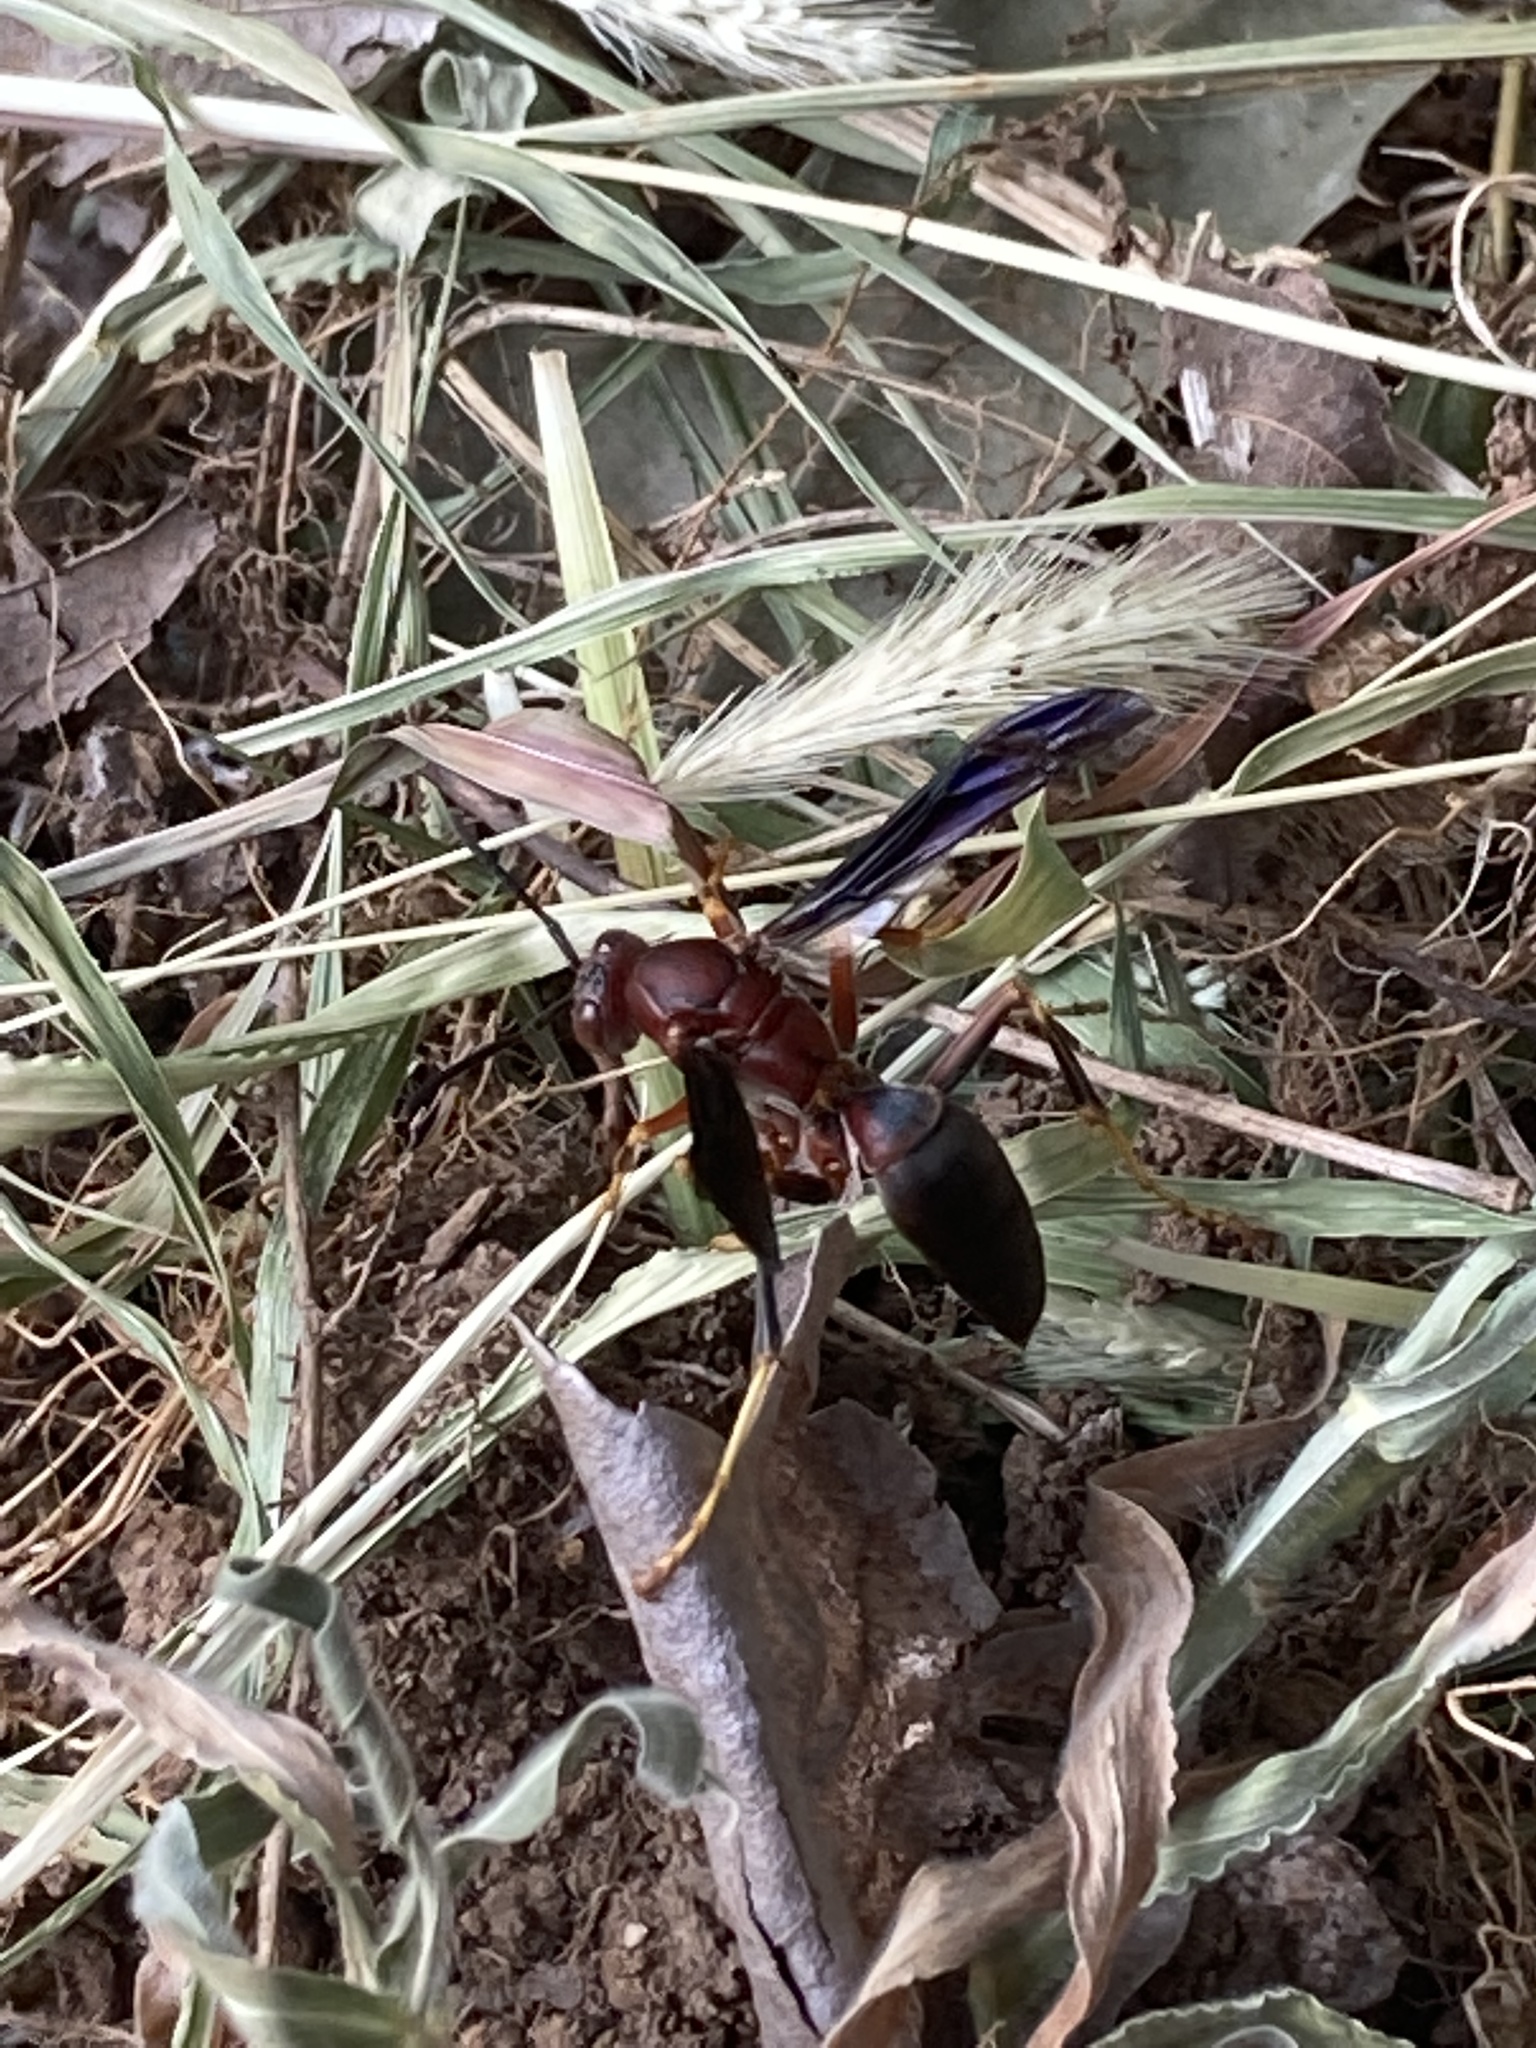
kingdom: Animalia
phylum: Arthropoda
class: Insecta
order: Hymenoptera
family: Eumenidae
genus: Polistes
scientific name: Polistes metricus
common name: Metric paper wasp
